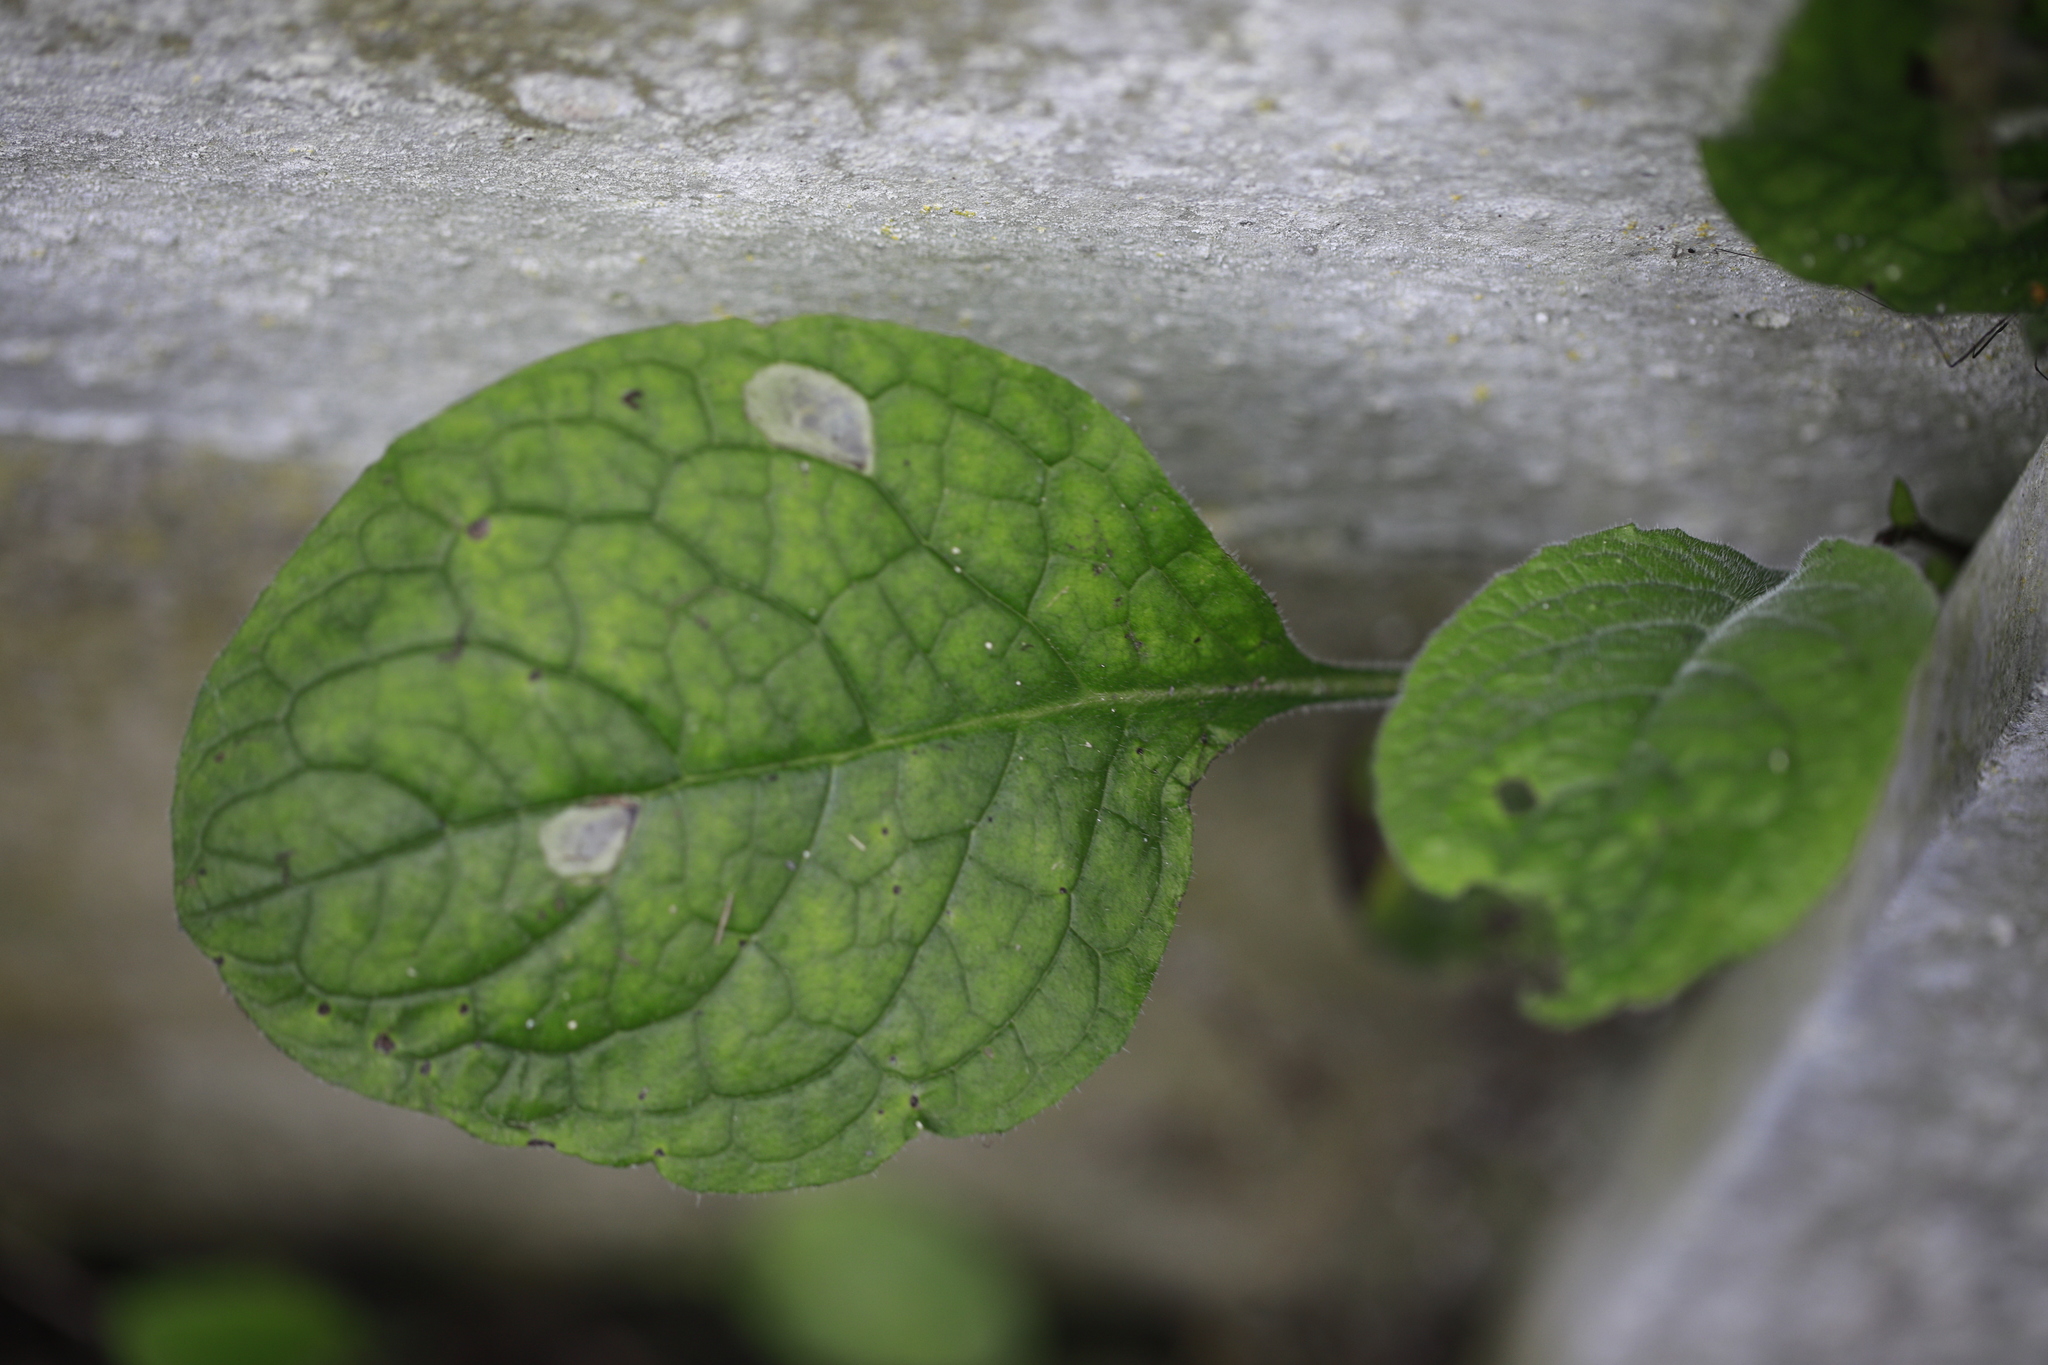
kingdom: Plantae
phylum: Tracheophyta
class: Magnoliopsida
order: Boraginales
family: Boraginaceae
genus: Pentaglottis
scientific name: Pentaglottis sempervirens
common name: Green alkanet
